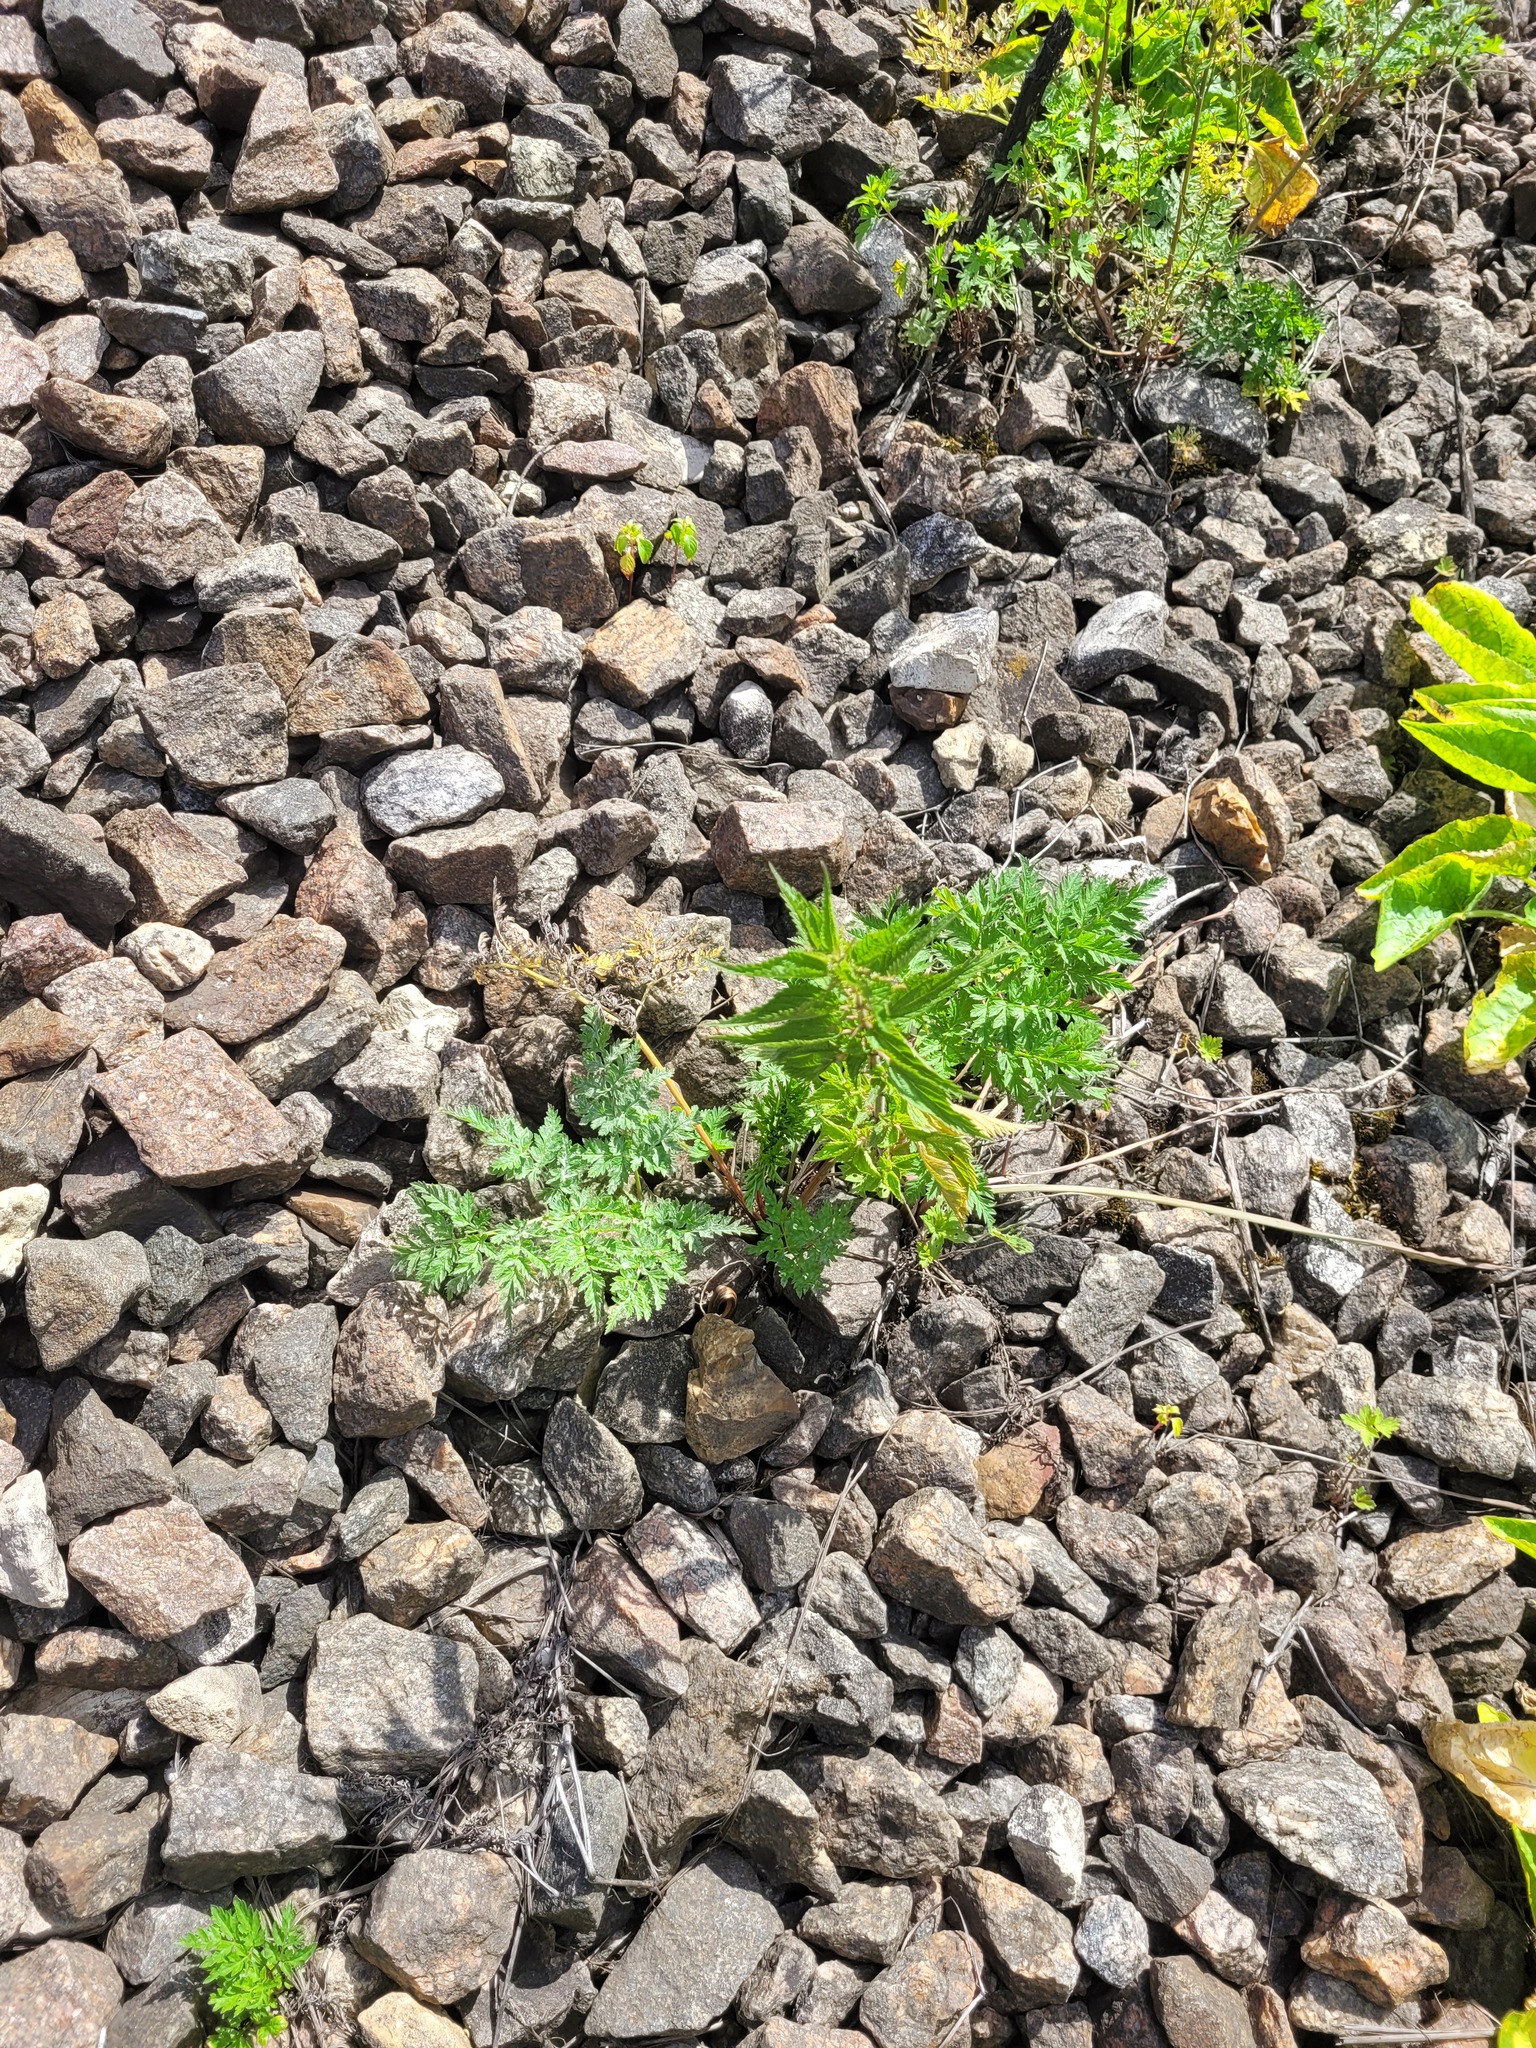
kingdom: Plantae
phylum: Tracheophyta
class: Magnoliopsida
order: Rosales
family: Urticaceae
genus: Urtica
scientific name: Urtica dioica
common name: Common nettle
